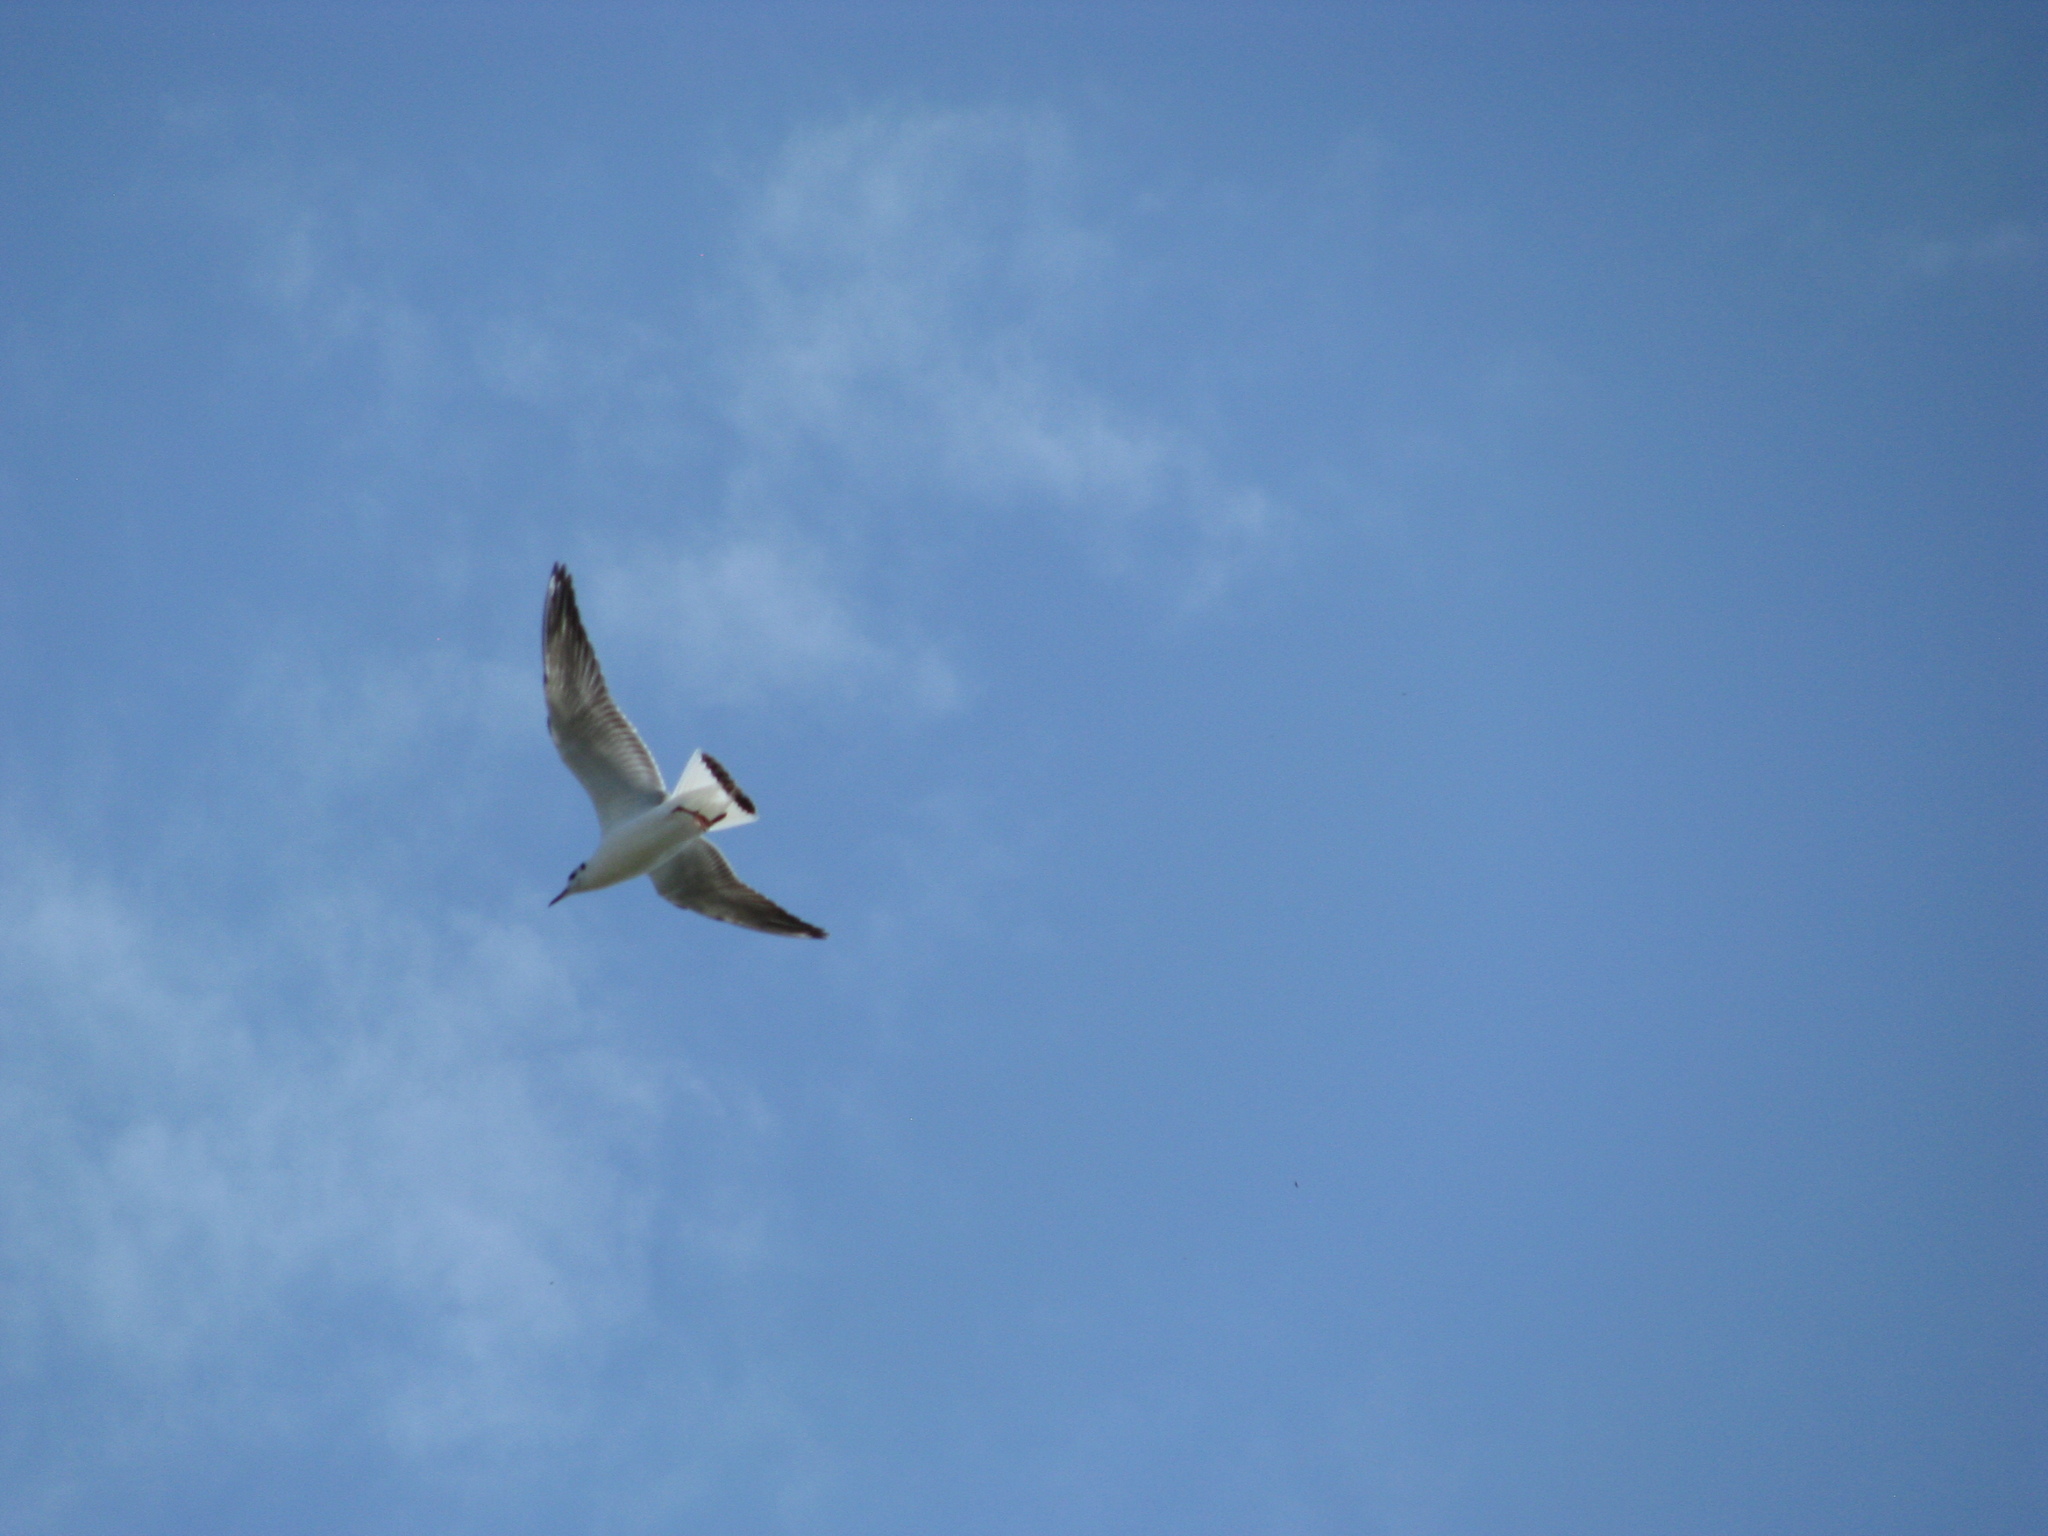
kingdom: Animalia
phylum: Chordata
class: Aves
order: Charadriiformes
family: Laridae
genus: Chroicocephalus
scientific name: Chroicocephalus ridibundus
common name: Black-headed gull
